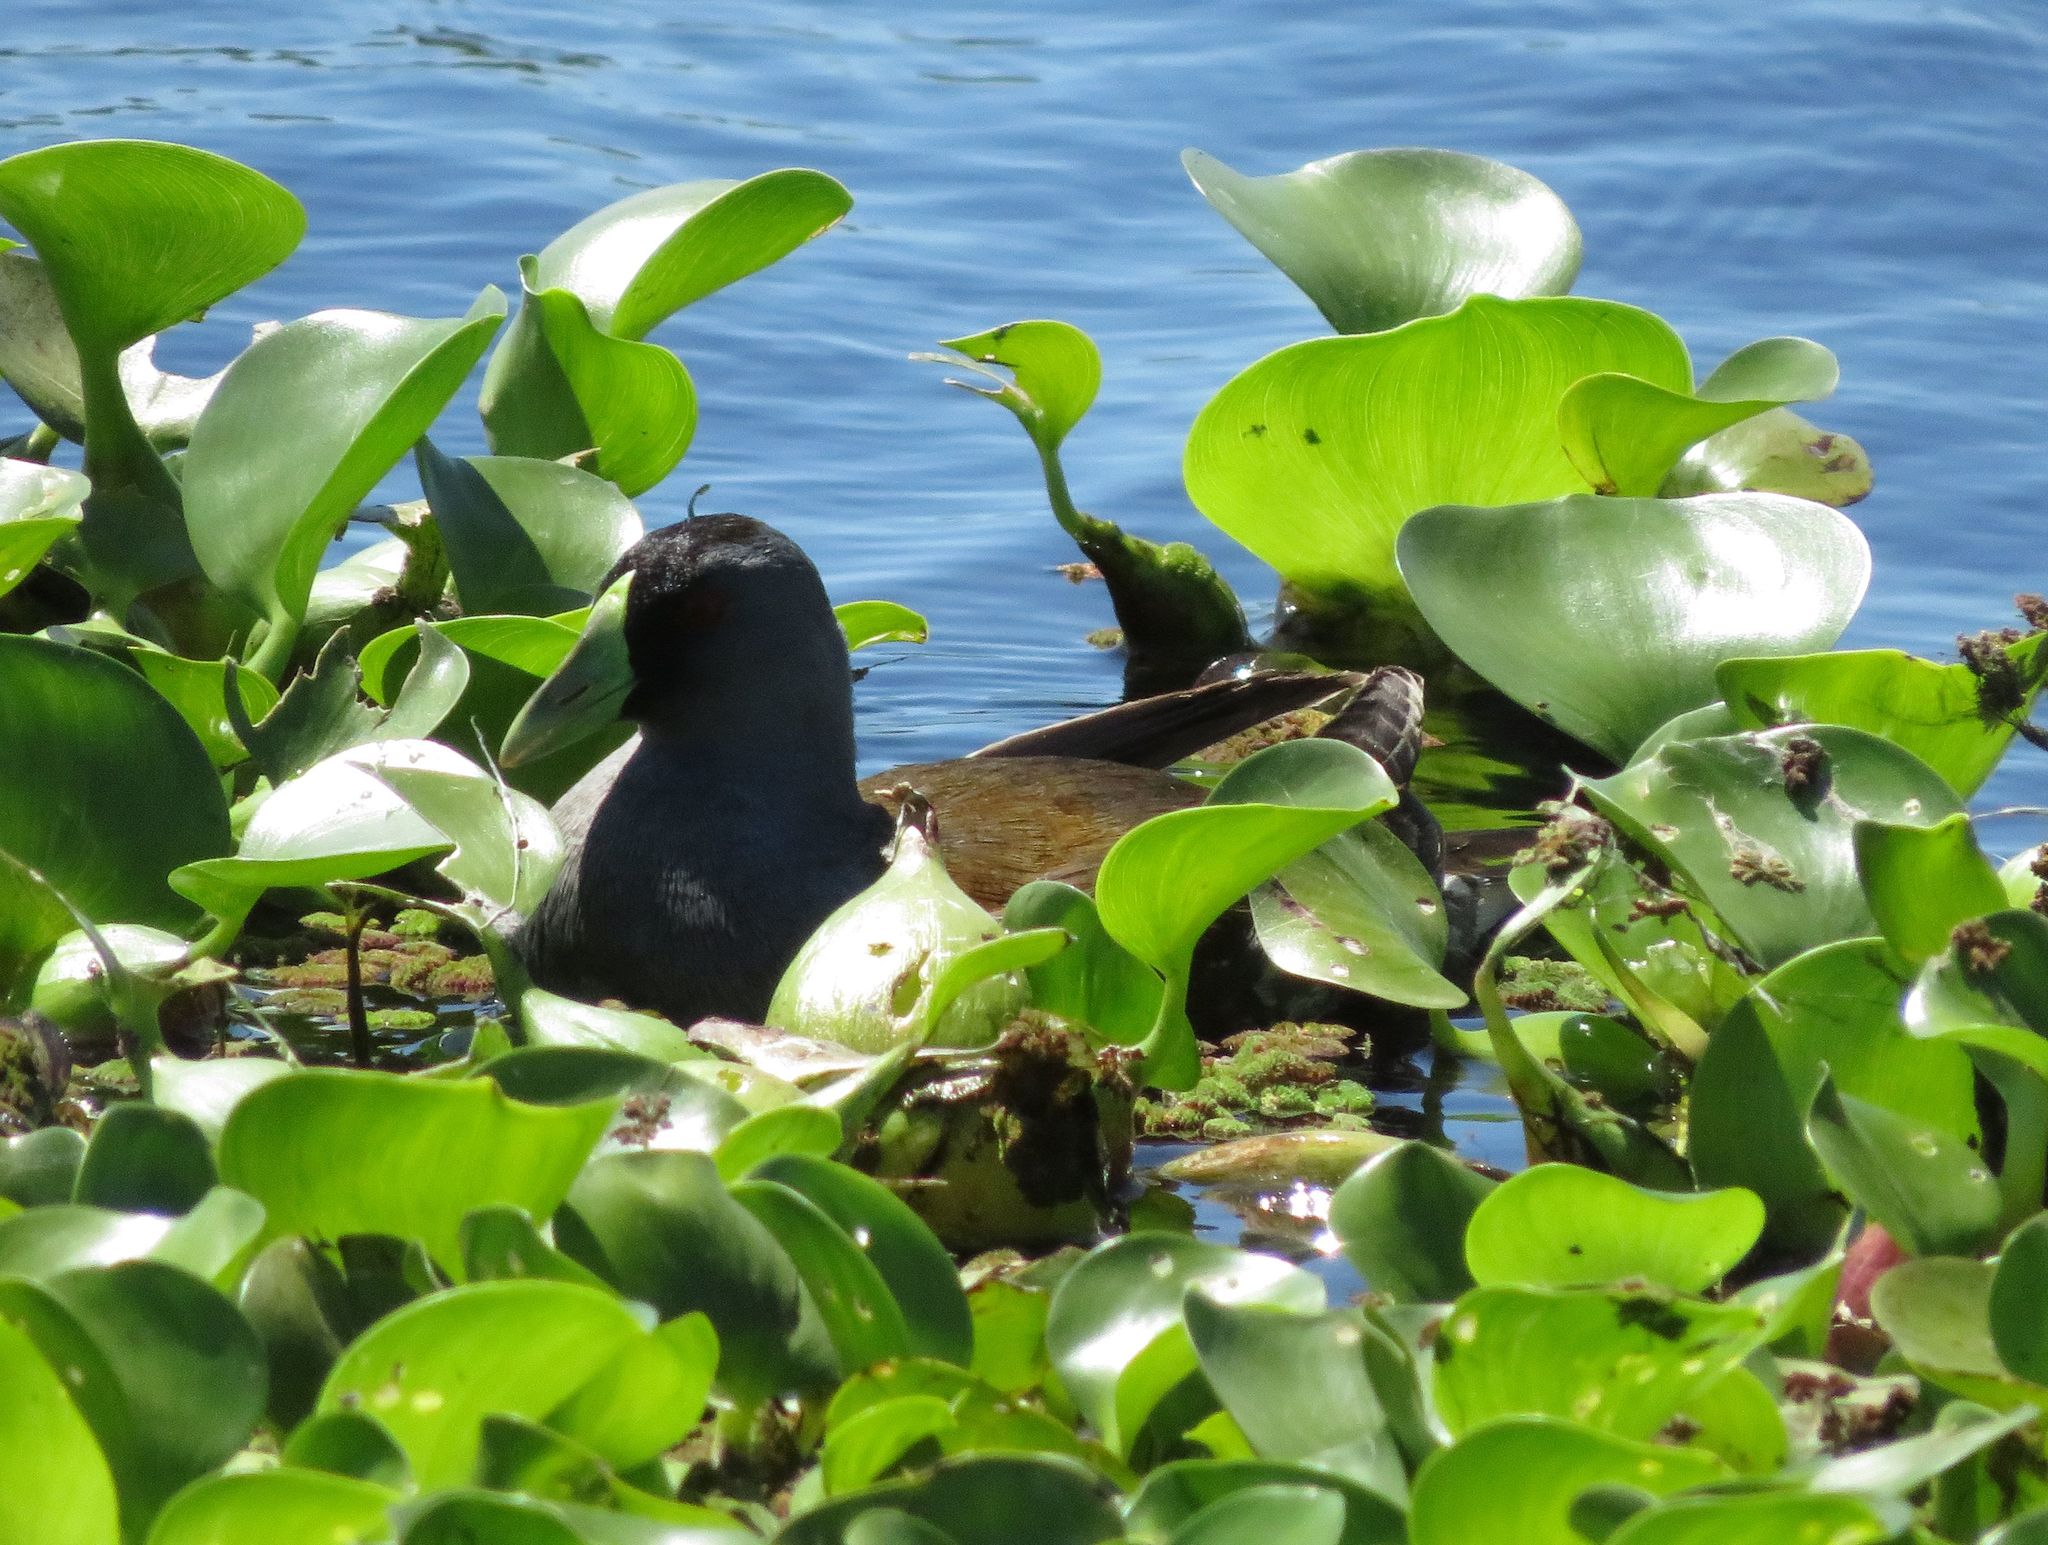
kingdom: Animalia
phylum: Chordata
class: Aves
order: Gruiformes
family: Rallidae
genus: Gallinula
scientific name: Gallinula melanops
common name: Spot-flanked gallinule
